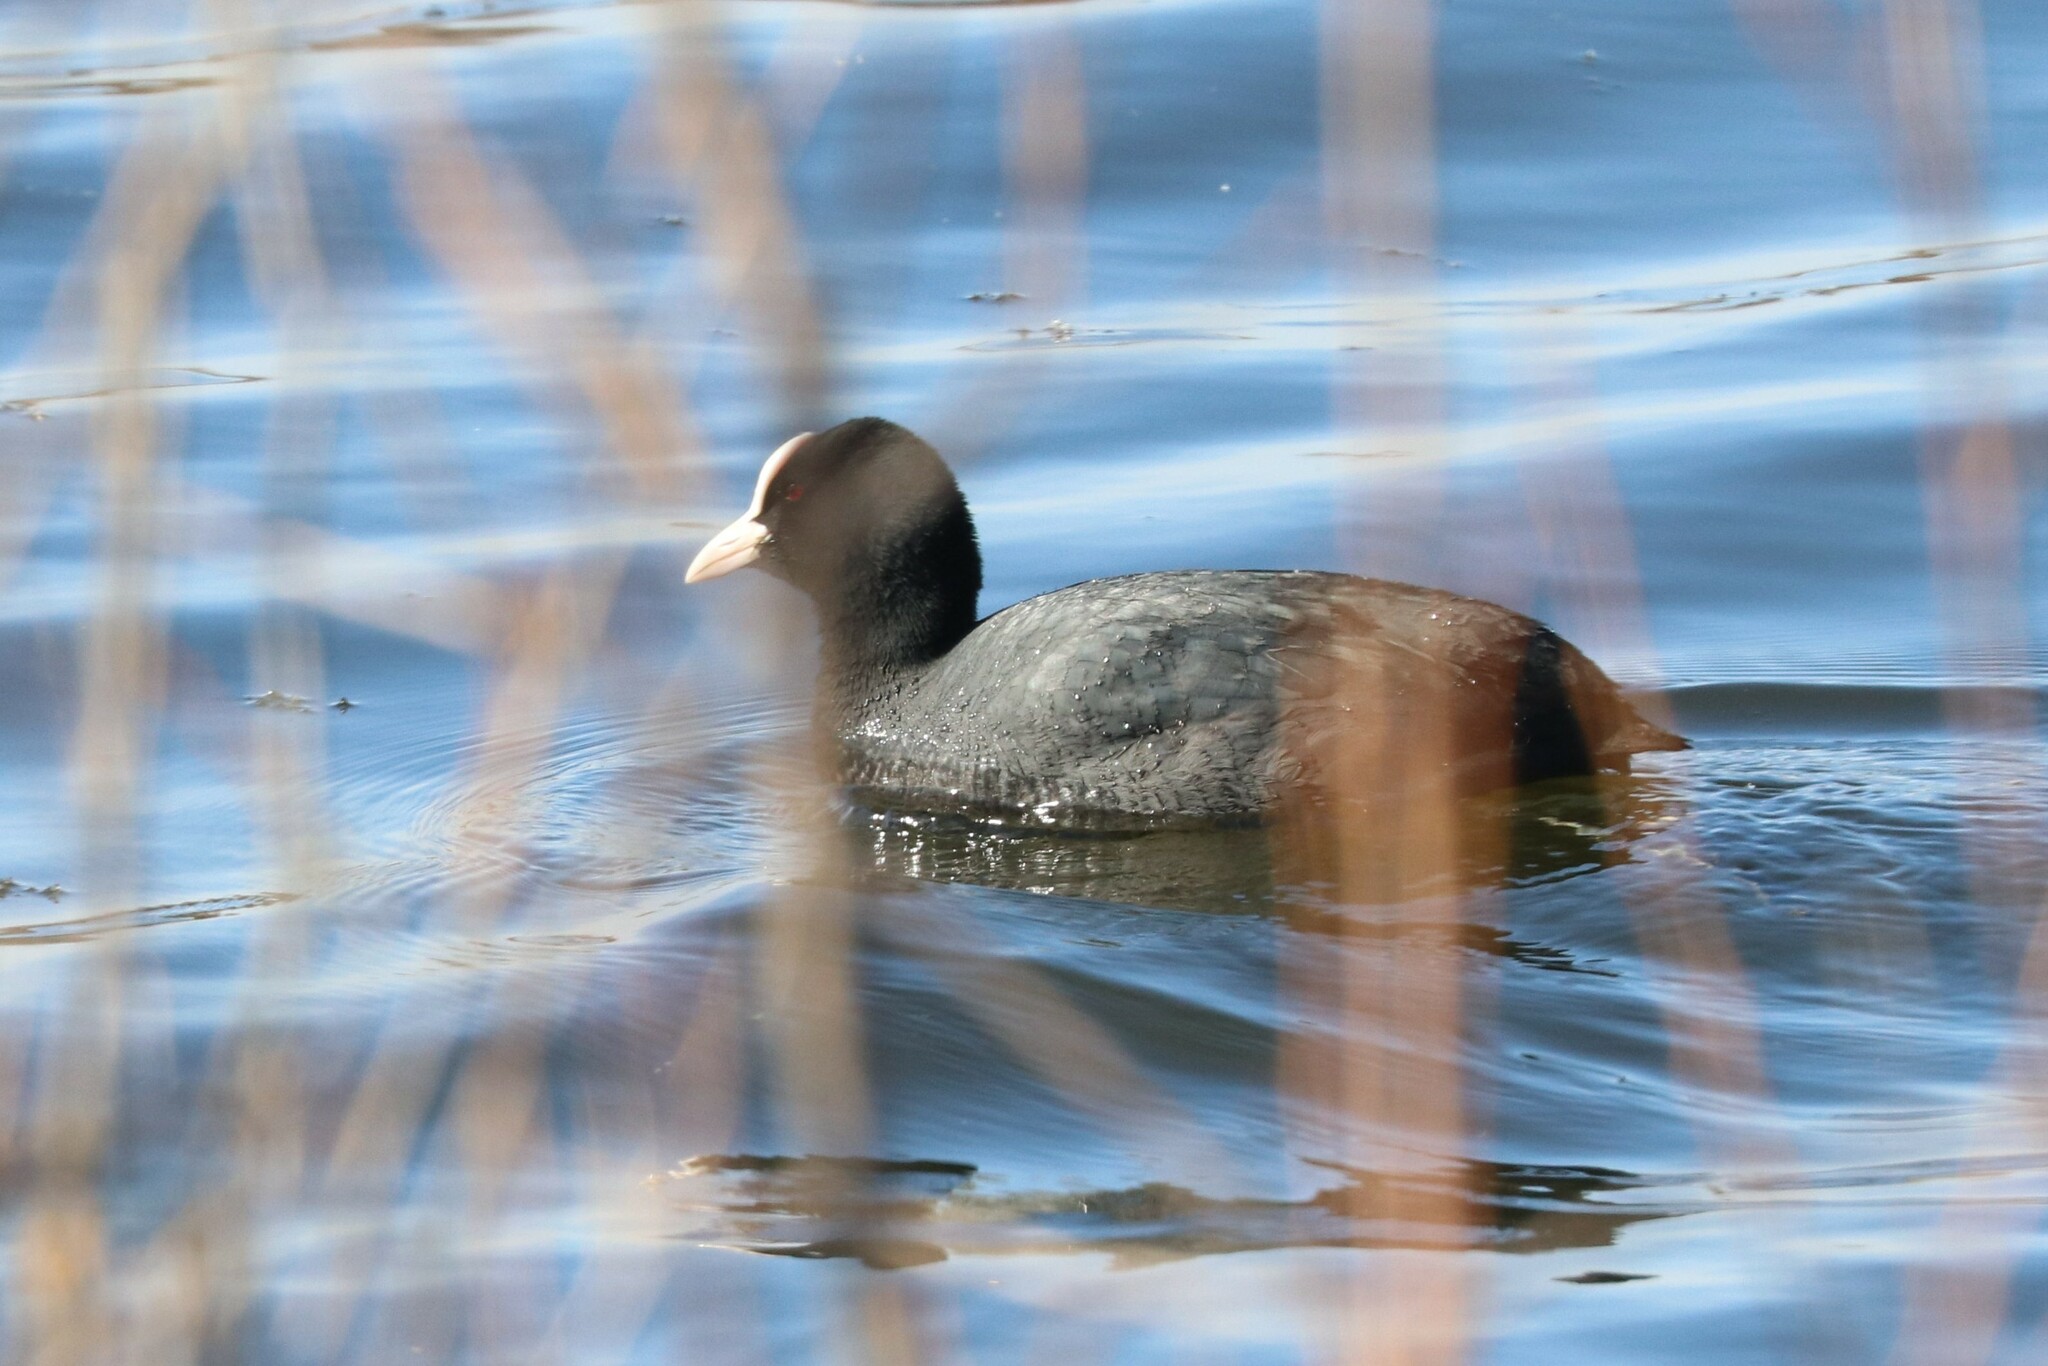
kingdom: Animalia
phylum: Chordata
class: Aves
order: Gruiformes
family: Rallidae
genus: Fulica
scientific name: Fulica atra
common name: Eurasian coot
